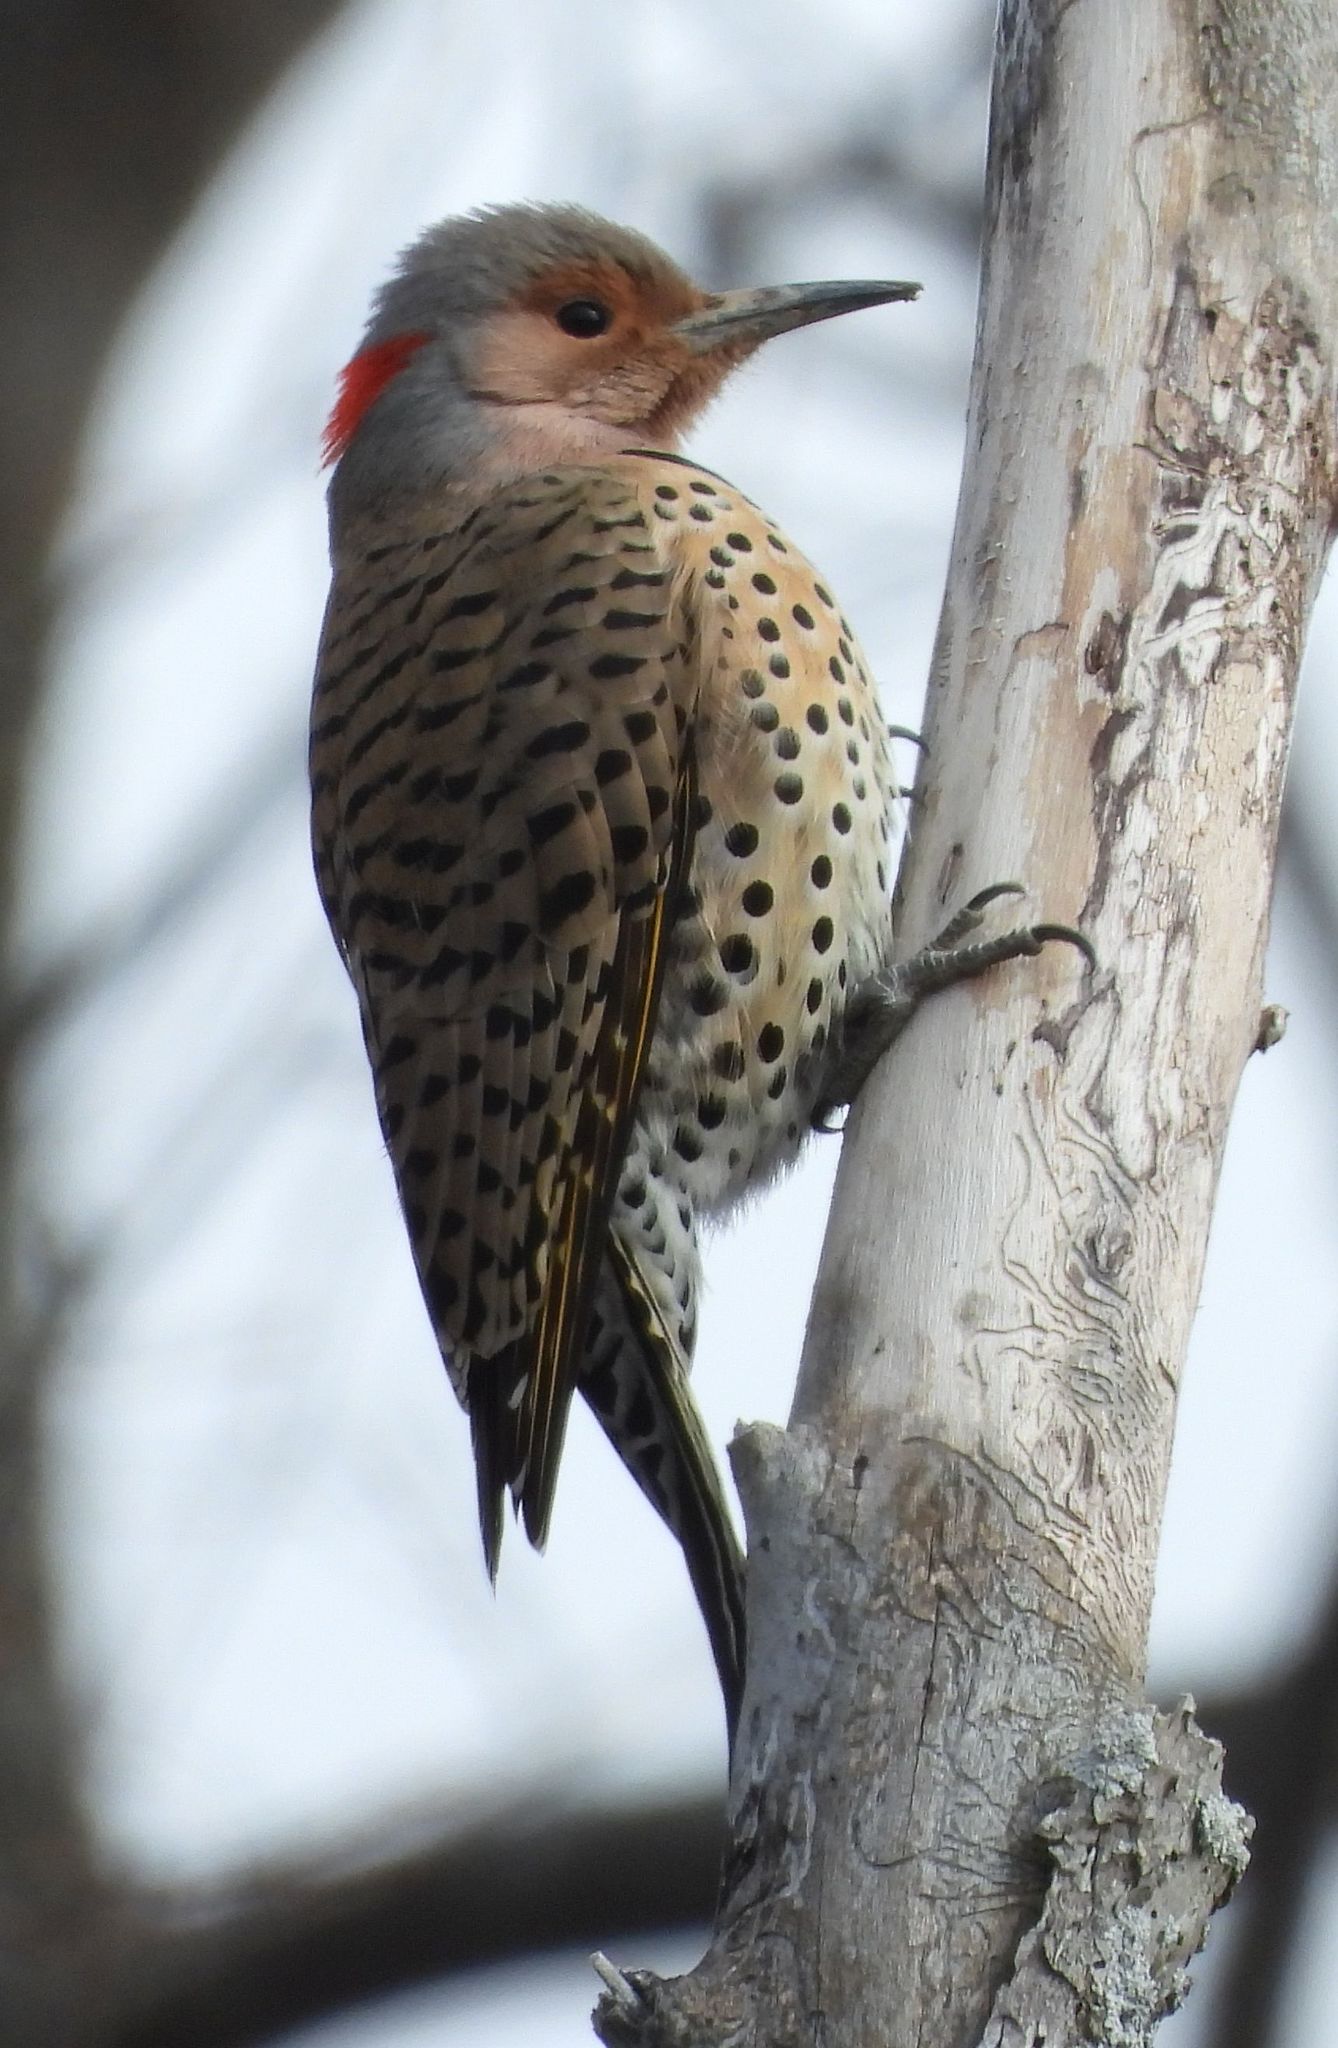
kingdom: Animalia
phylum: Chordata
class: Aves
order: Piciformes
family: Picidae
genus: Colaptes
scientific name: Colaptes auratus
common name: Northern flicker
